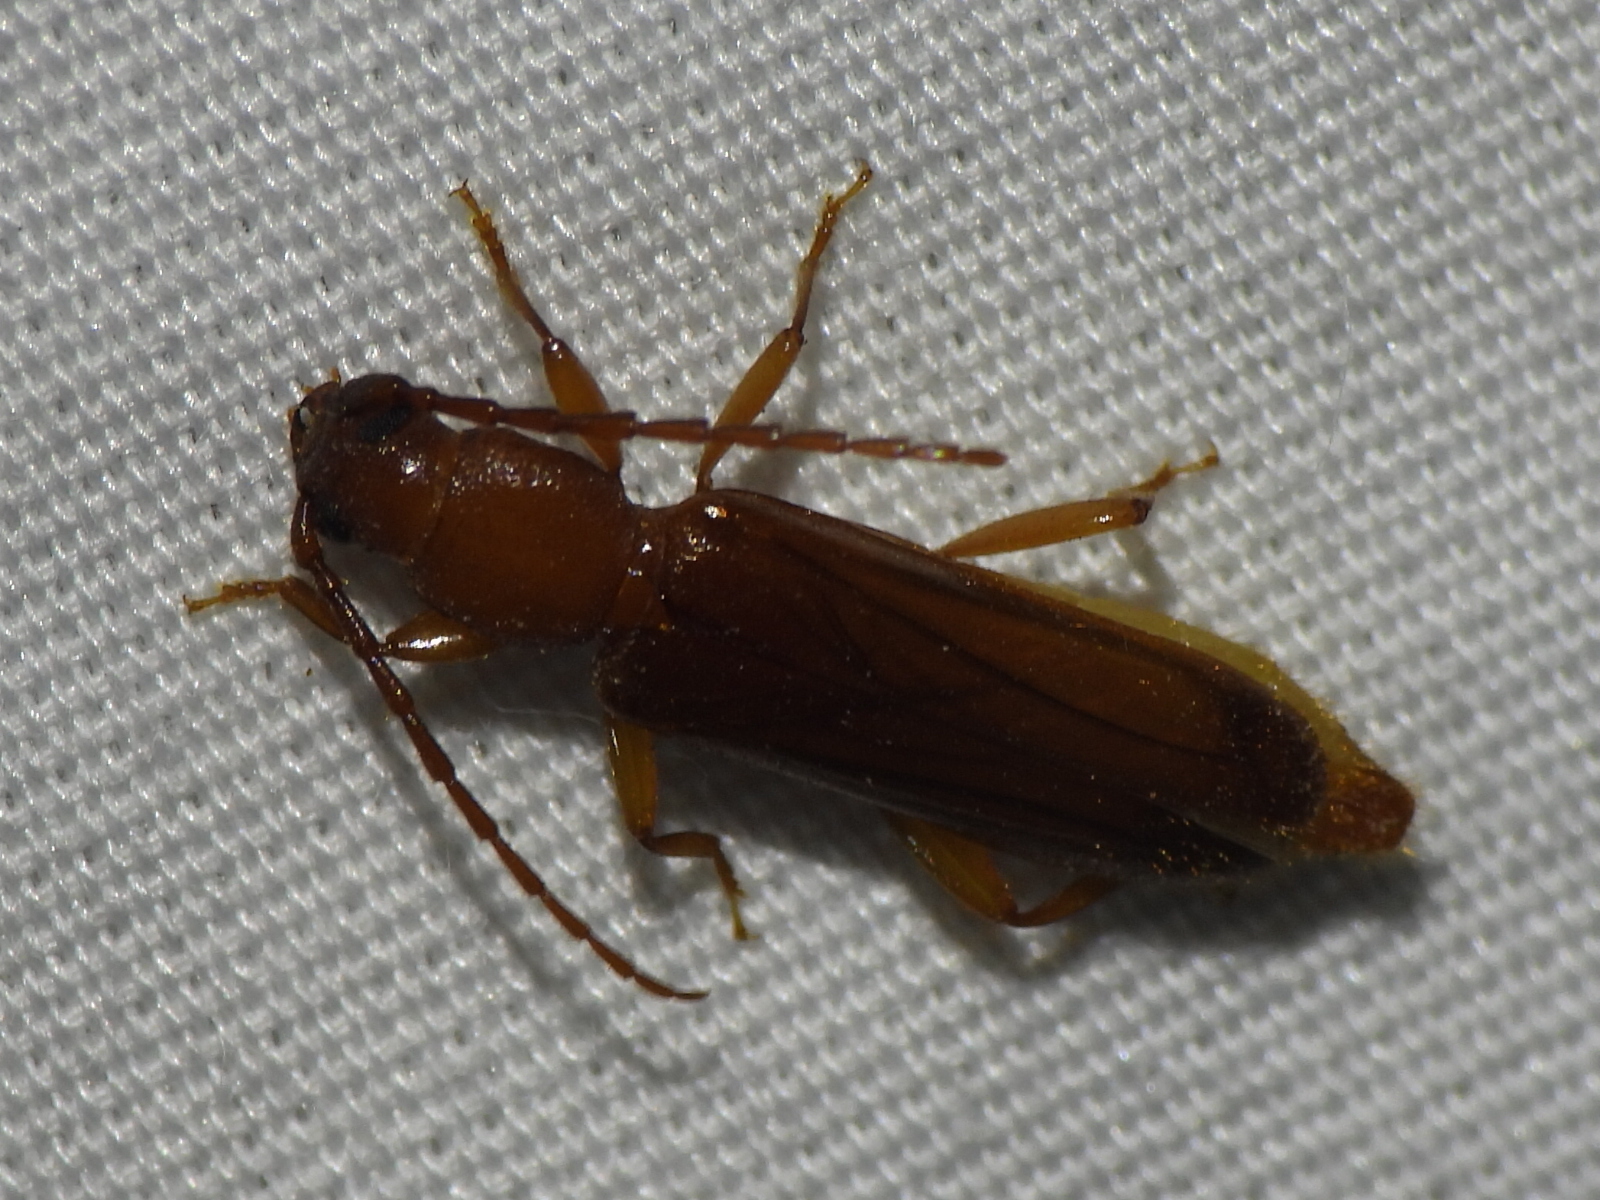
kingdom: Animalia
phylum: Arthropoda
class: Insecta
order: Coleoptera
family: Cerambycidae
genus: Smodicum
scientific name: Smodicum cucujiforme
